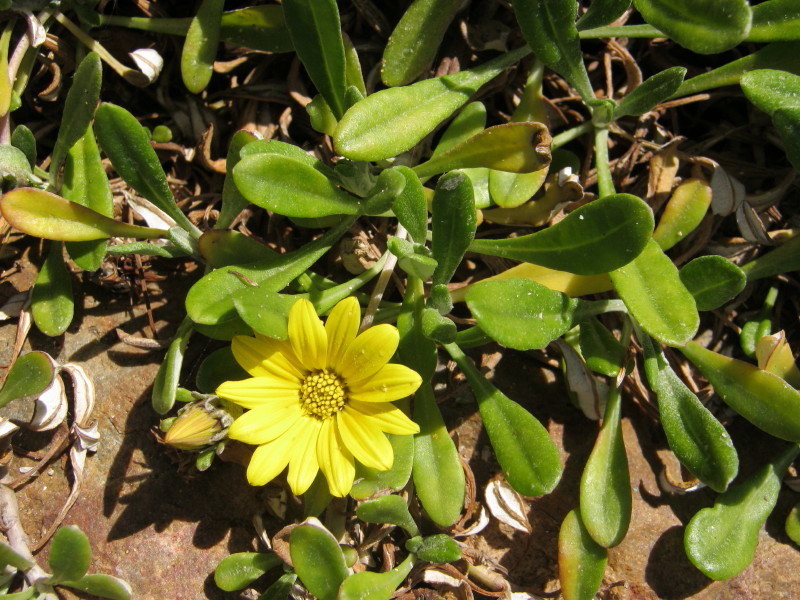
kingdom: Plantae
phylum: Tracheophyta
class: Magnoliopsida
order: Asterales
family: Asteraceae
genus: Gazania
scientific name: Gazania rigens
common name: Treasureflower
